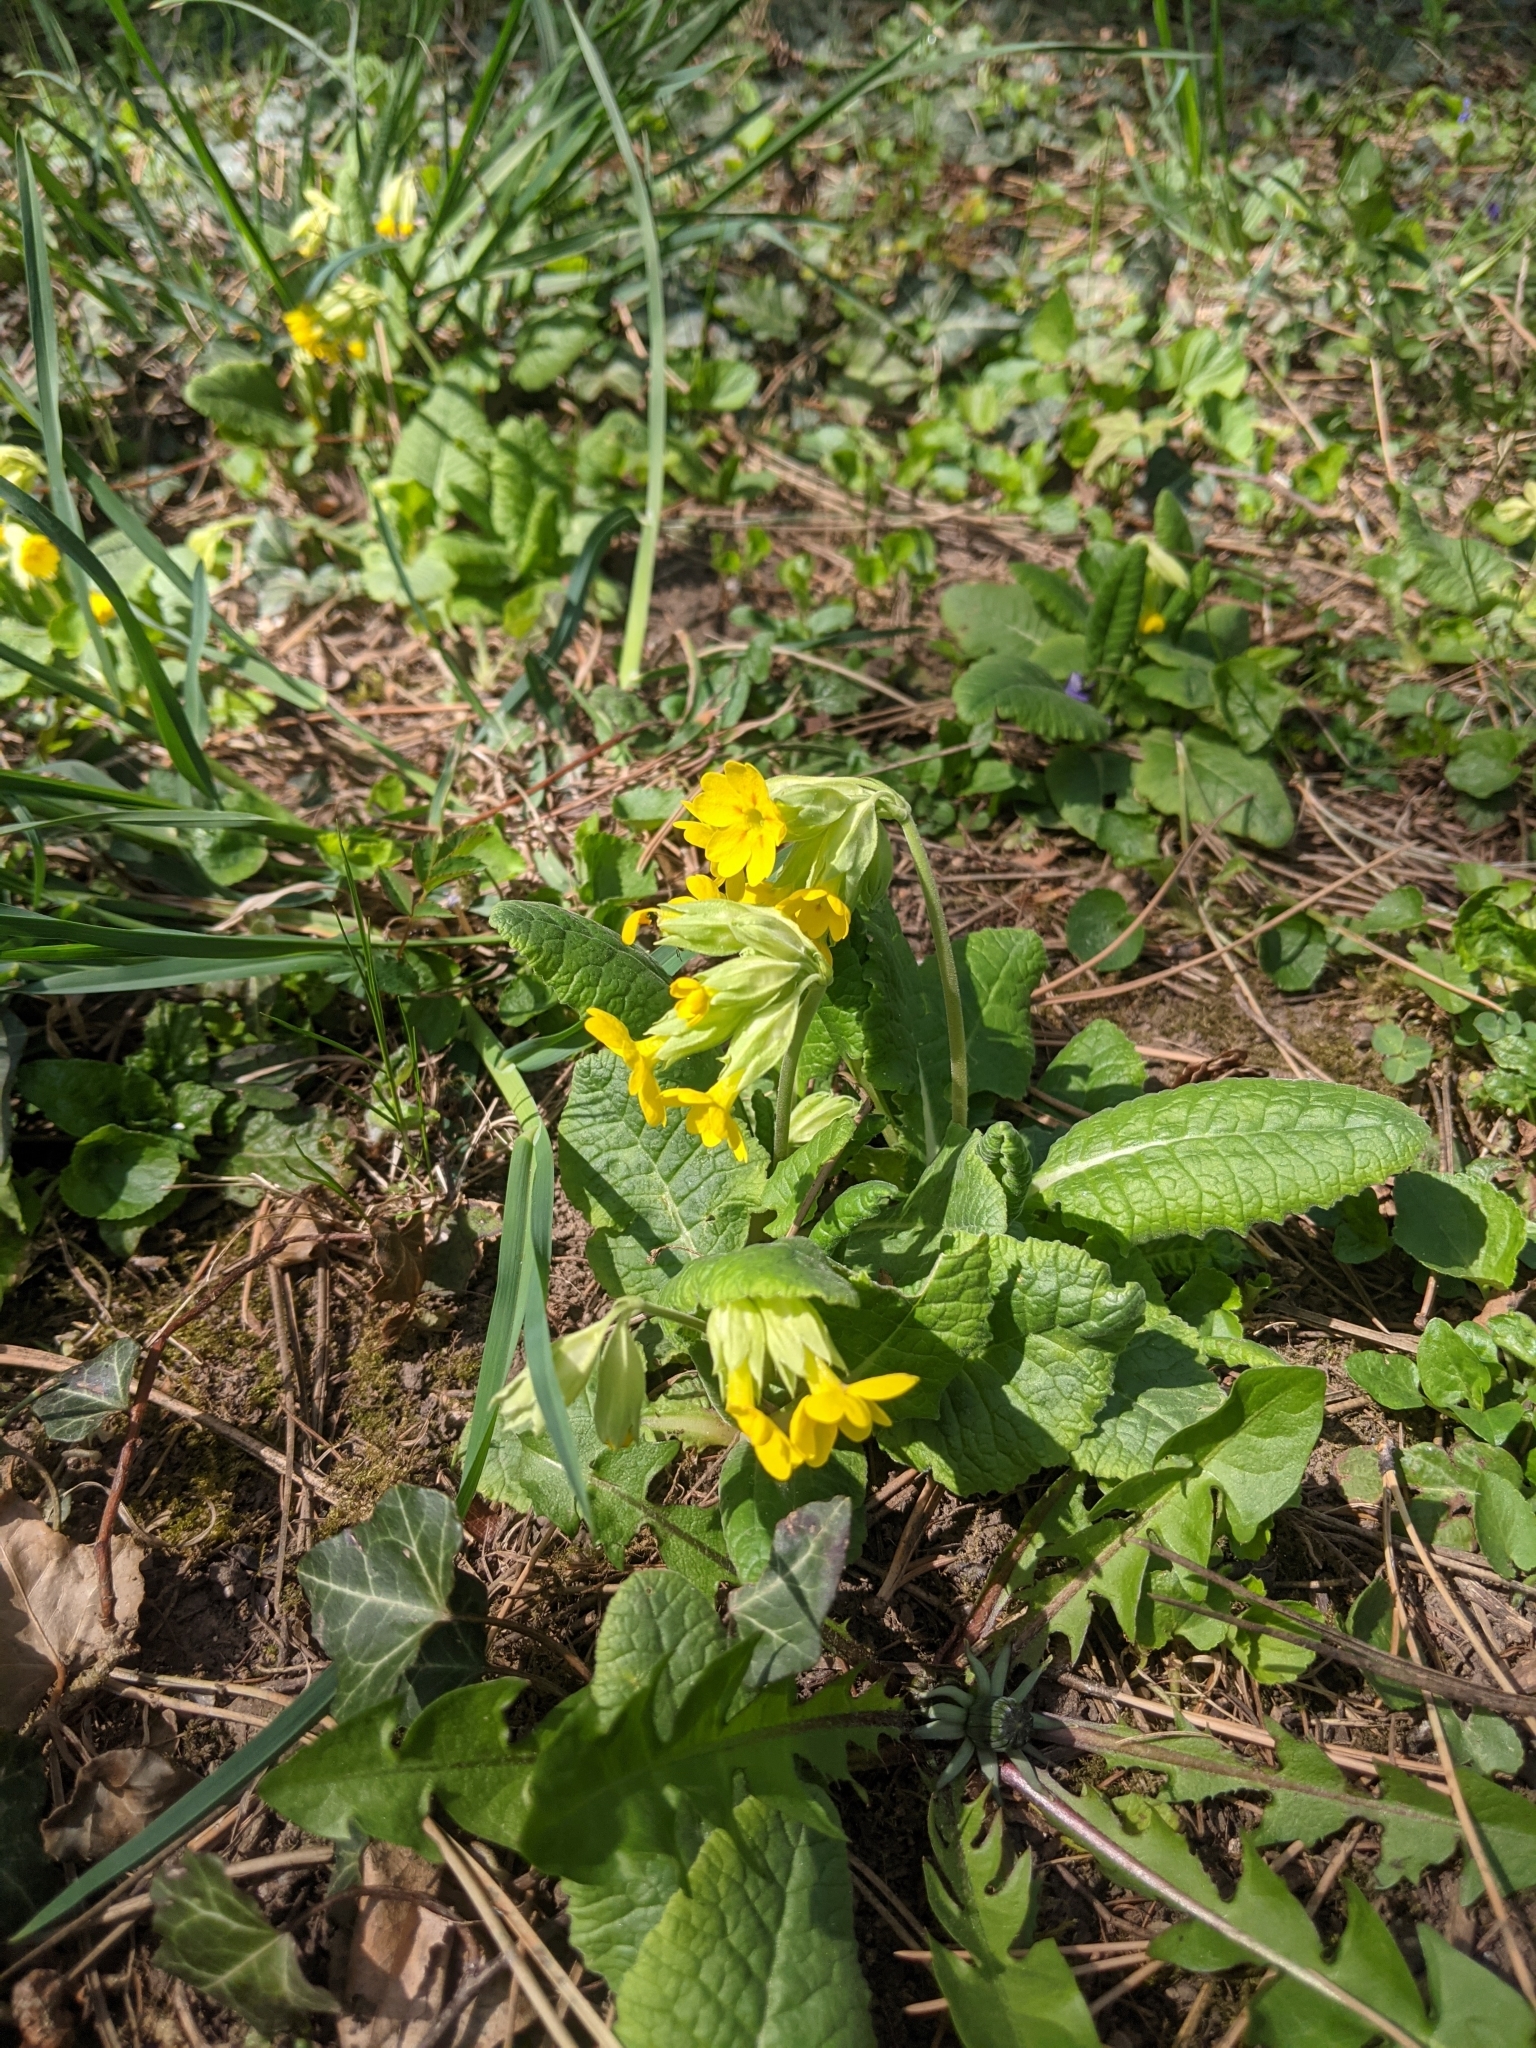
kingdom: Plantae
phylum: Tracheophyta
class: Magnoliopsida
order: Ericales
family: Primulaceae
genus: Primula
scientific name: Primula veris
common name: Cowslip
